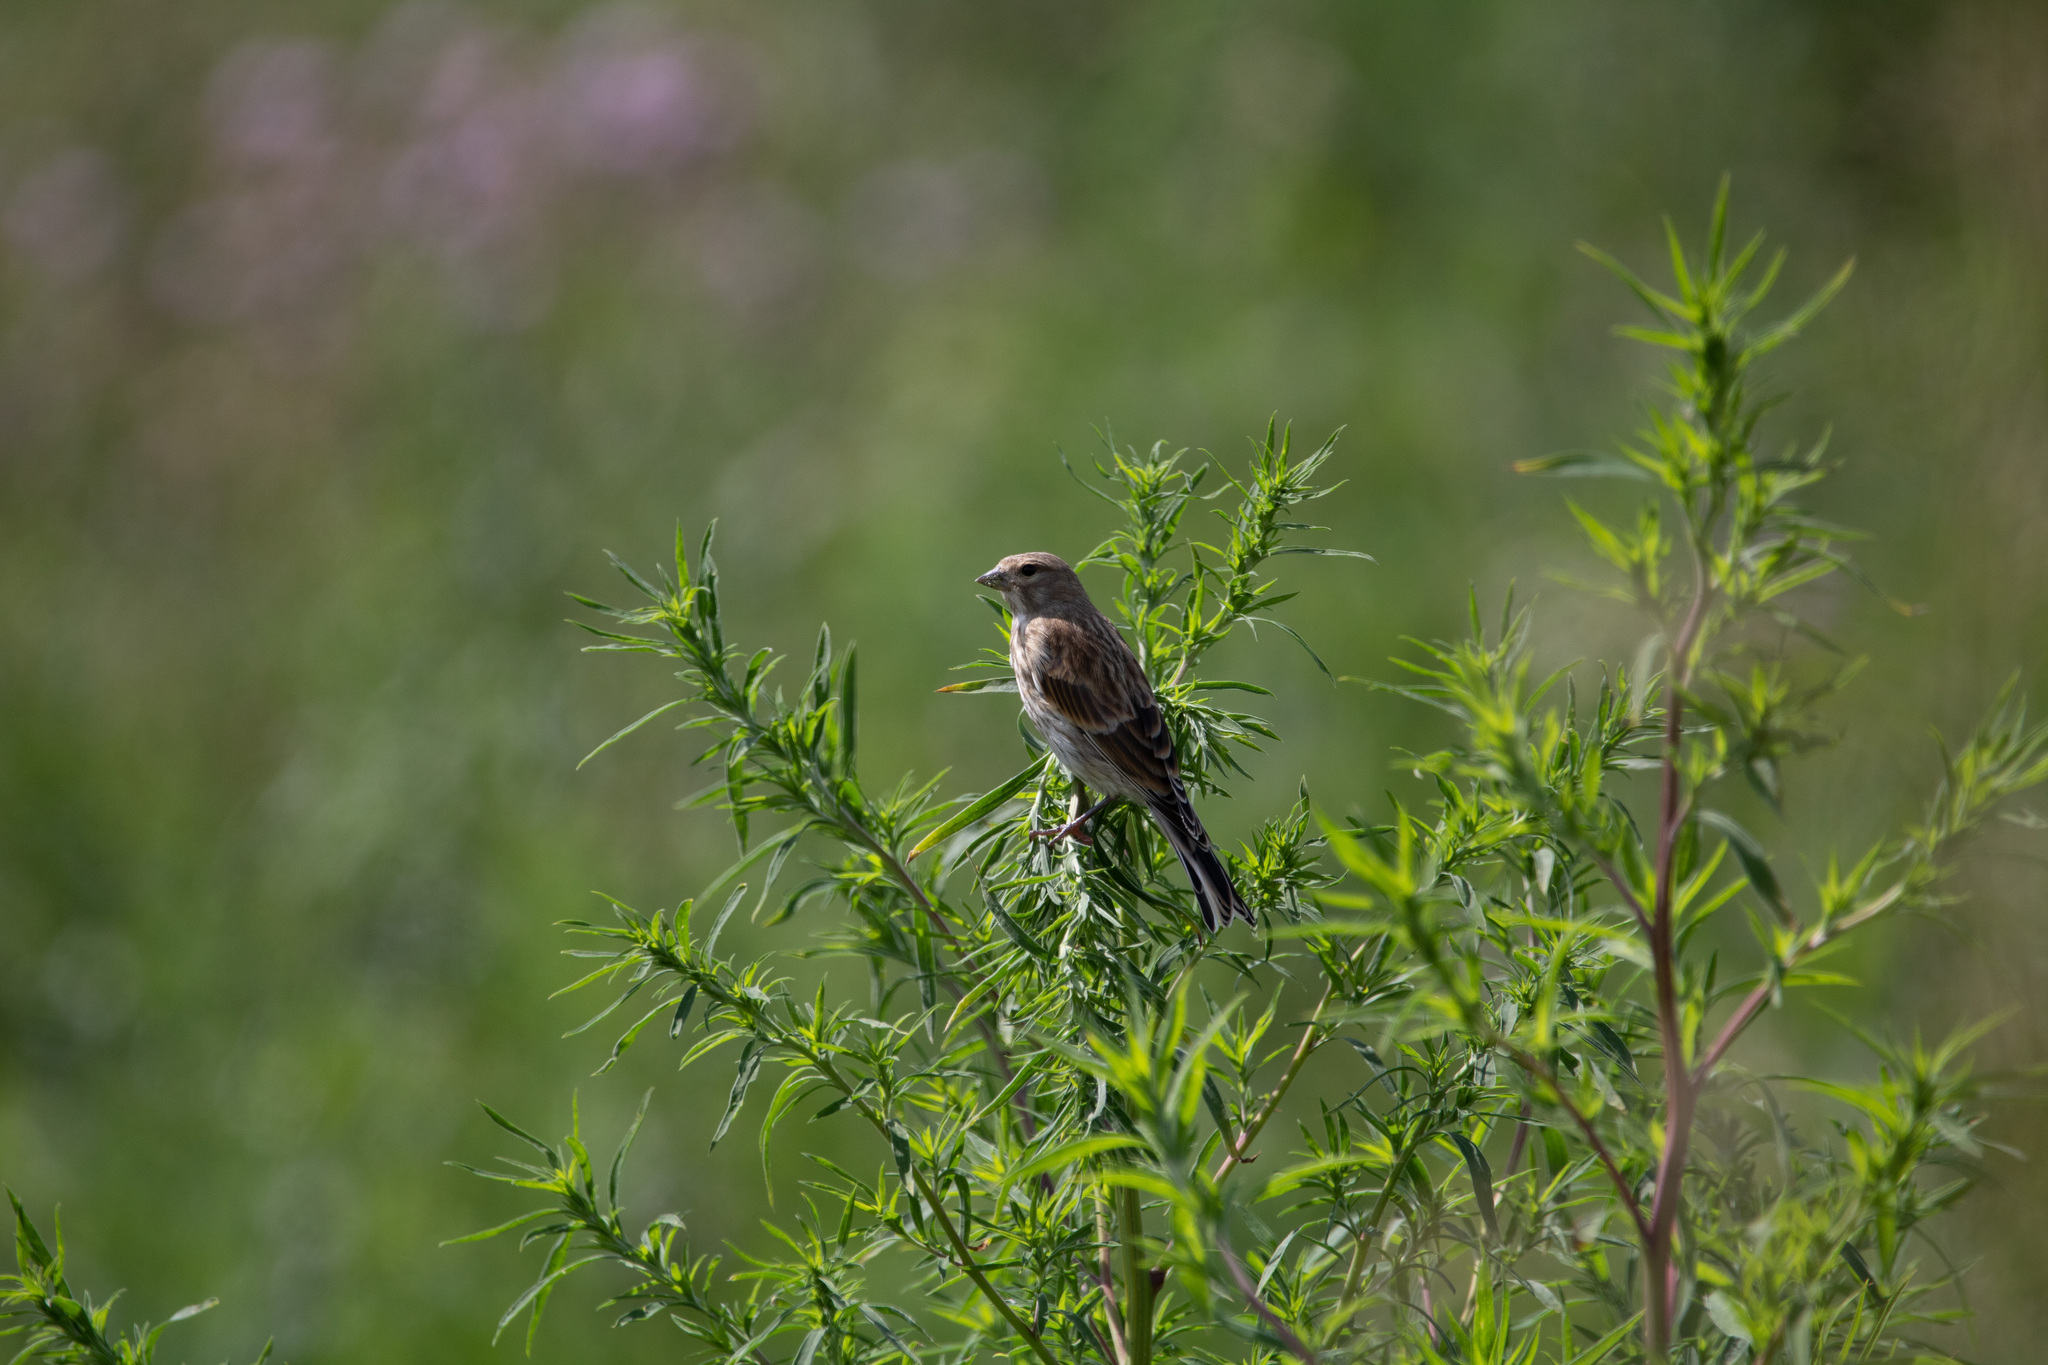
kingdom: Animalia
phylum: Chordata
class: Aves
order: Passeriformes
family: Fringillidae
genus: Linaria
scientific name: Linaria cannabina
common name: Common linnet
